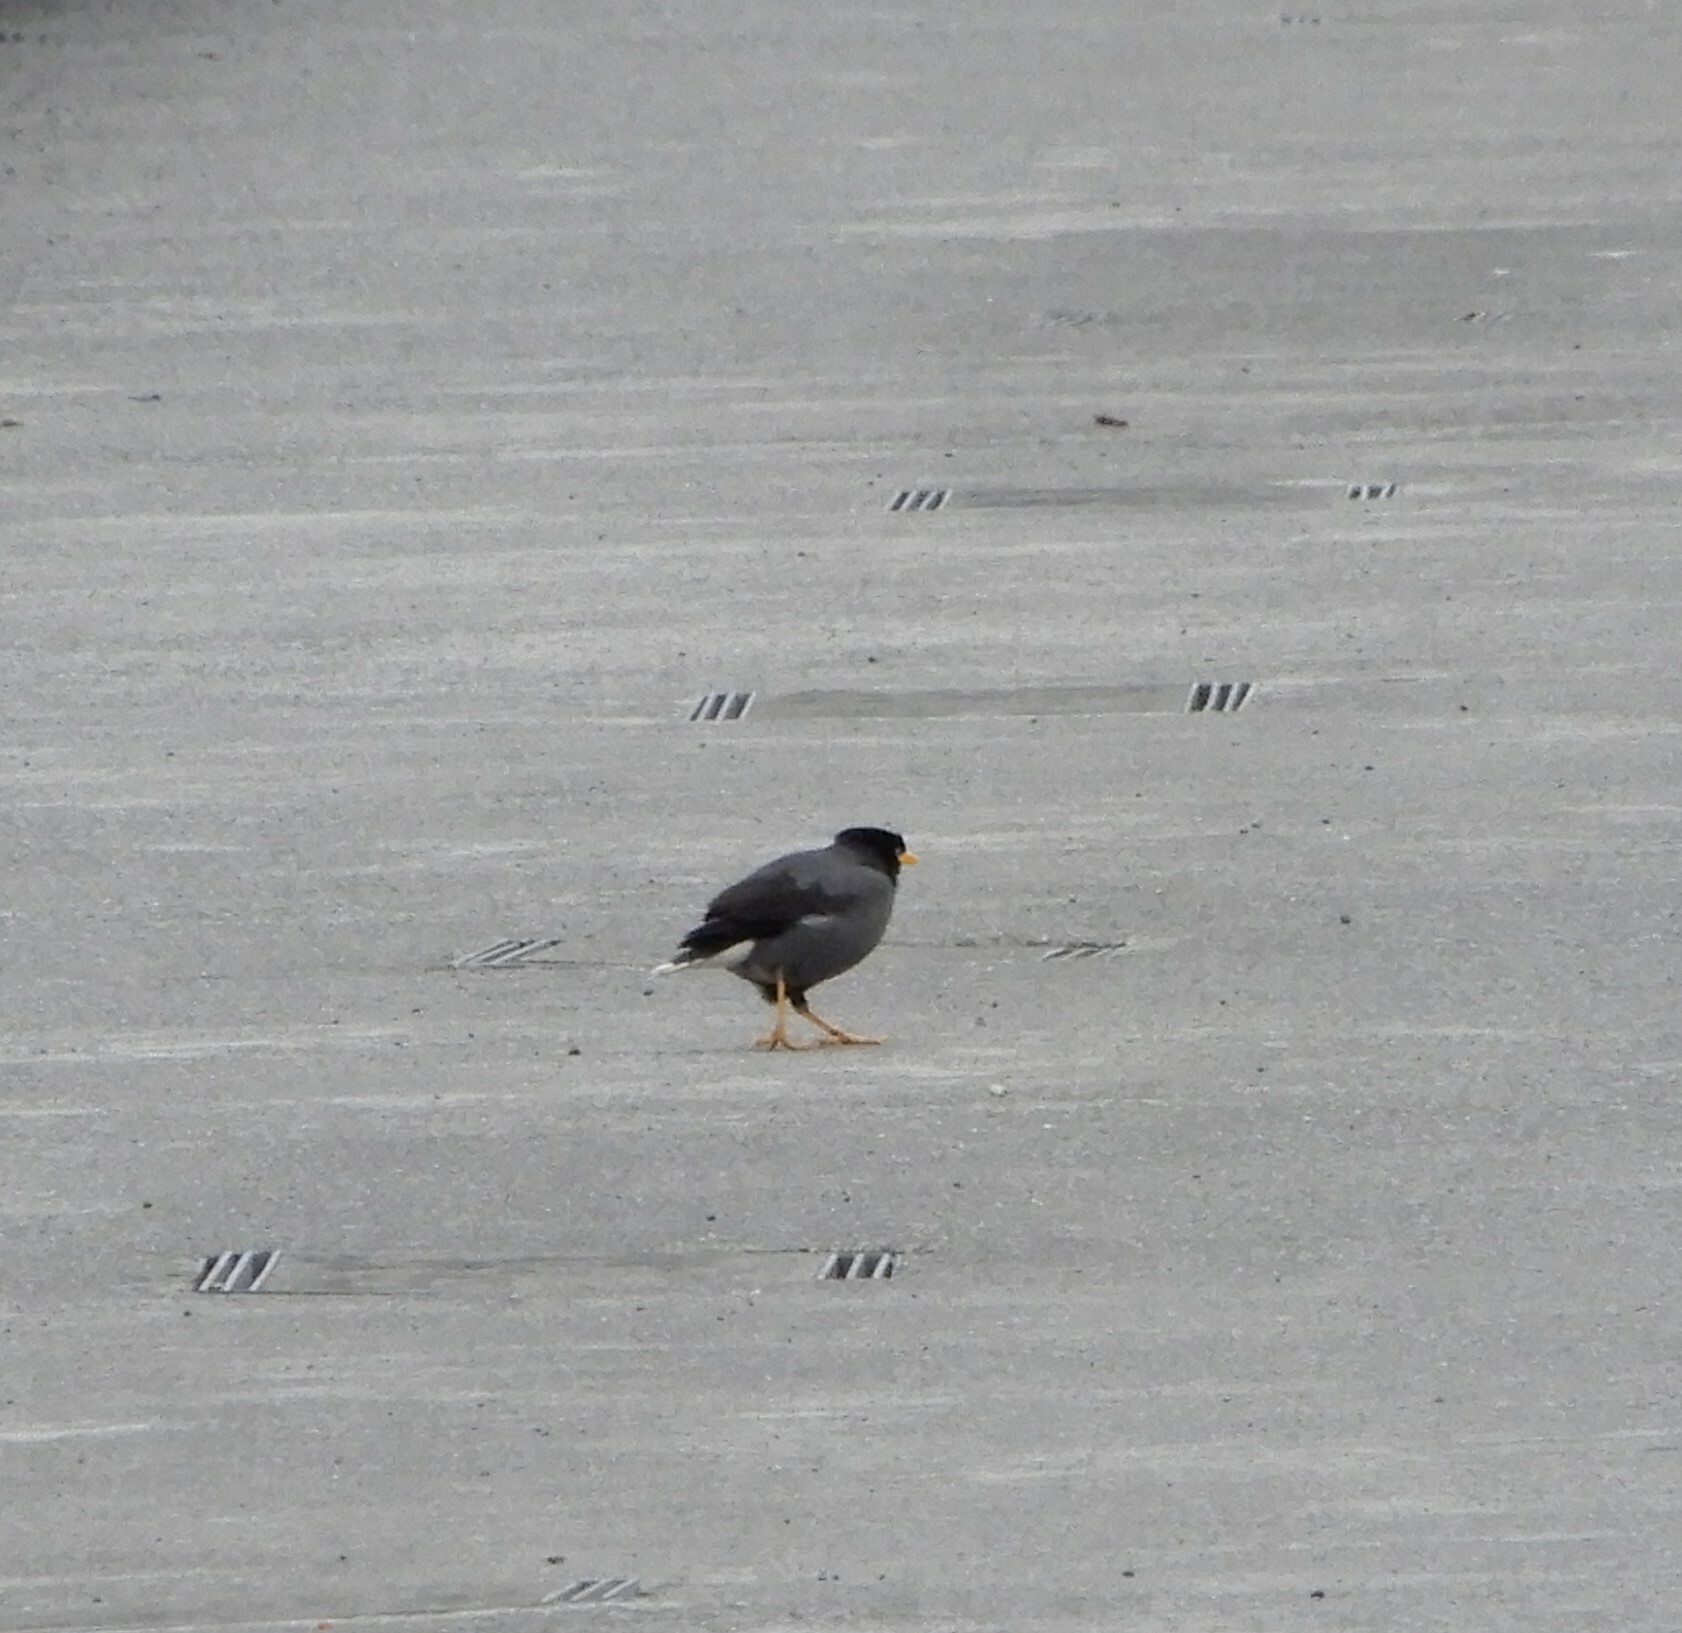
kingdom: Animalia
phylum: Chordata
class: Aves
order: Passeriformes
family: Sturnidae
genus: Acridotheres
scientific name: Acridotheres javanicus
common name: Javan myna
